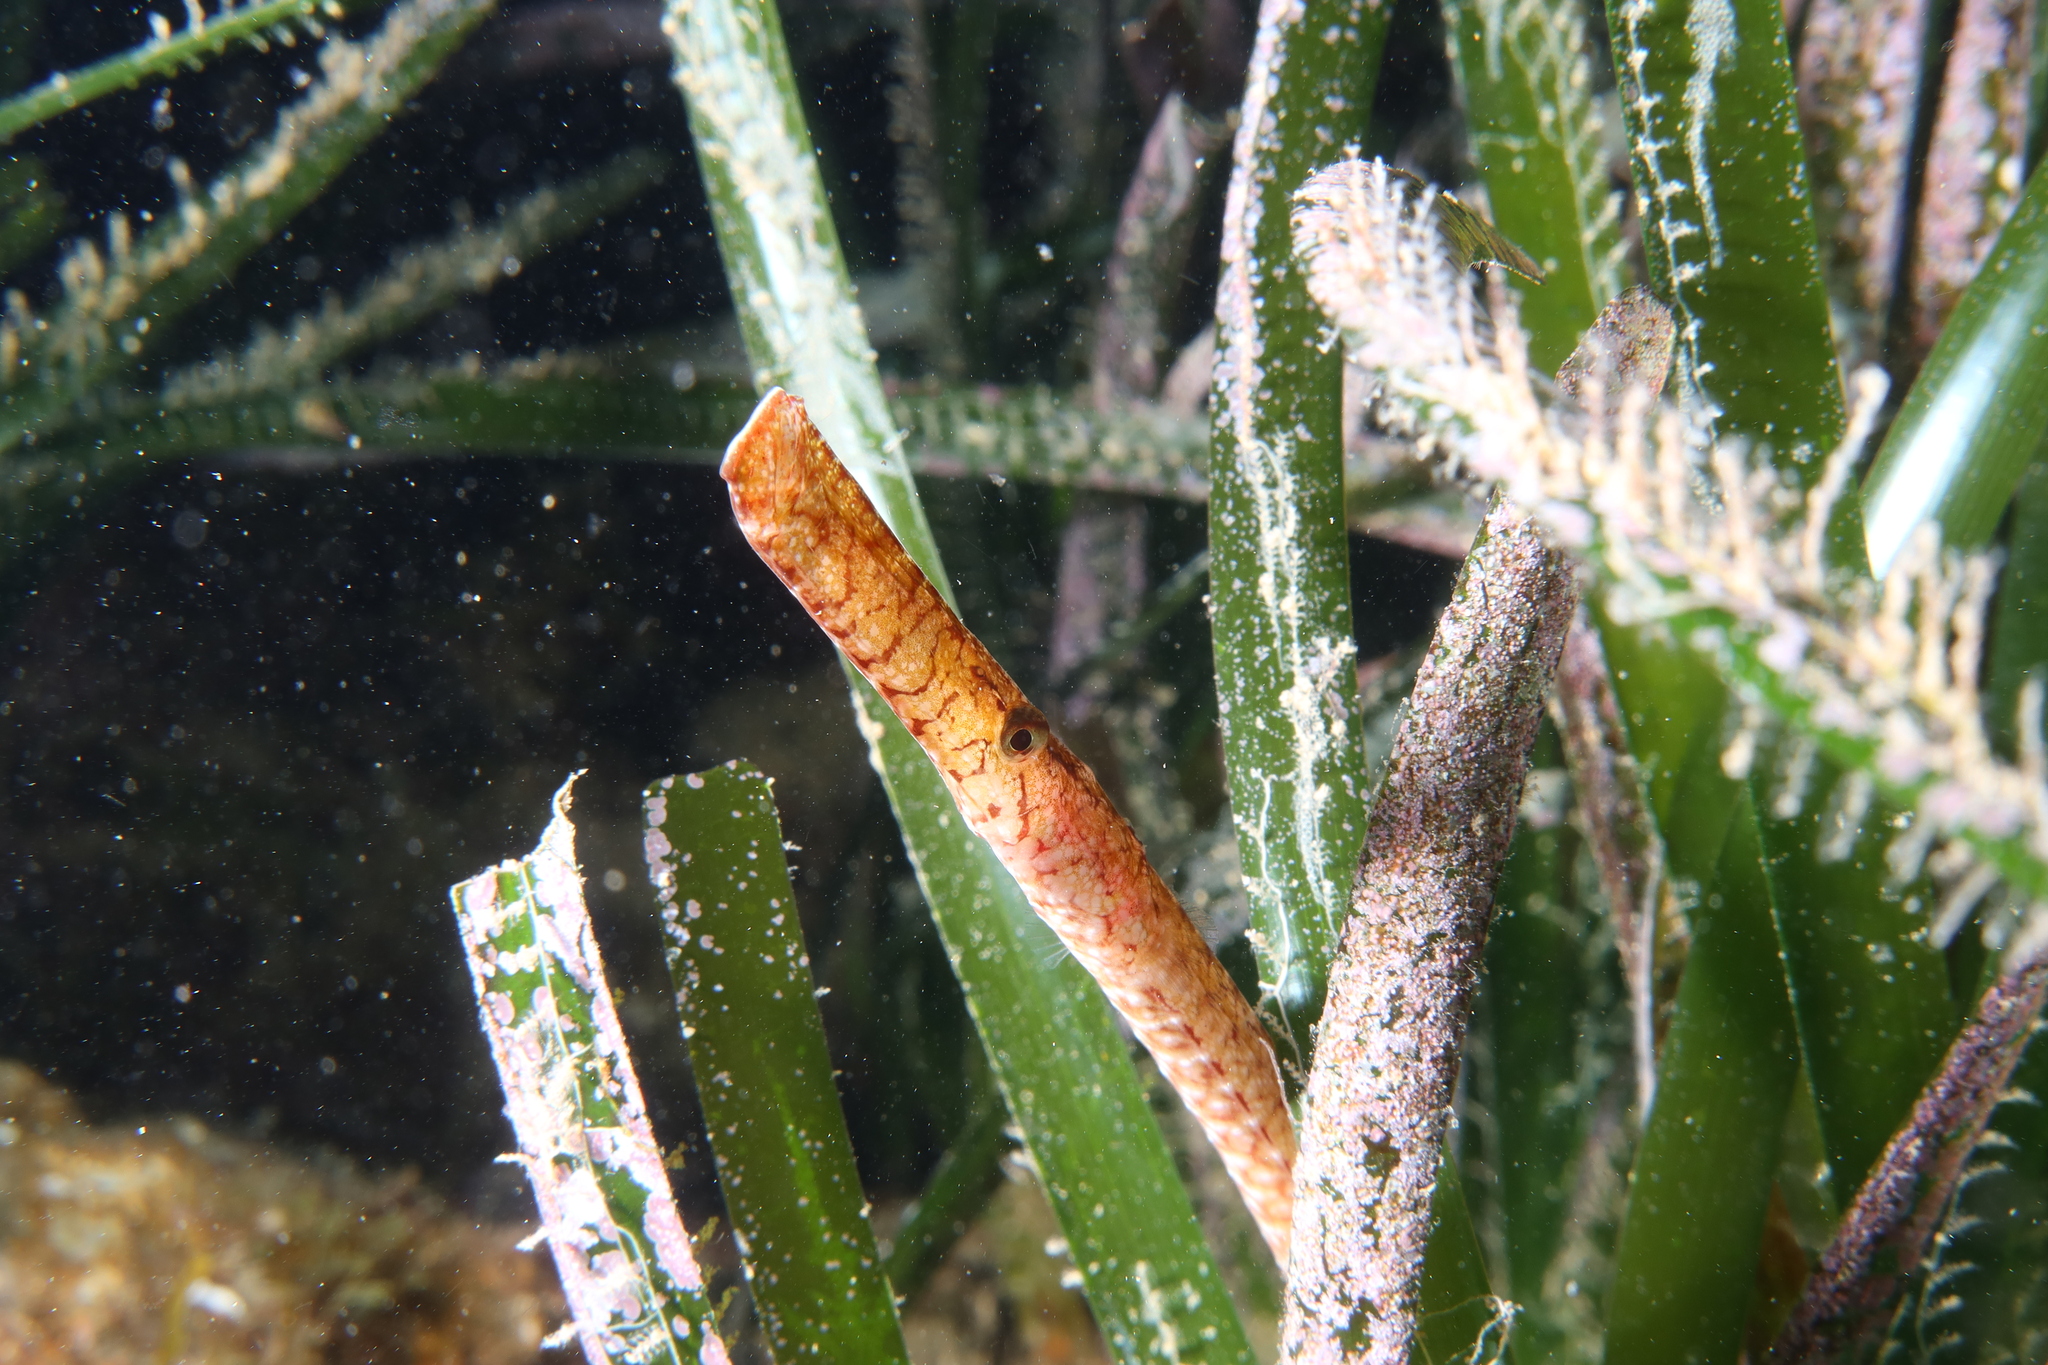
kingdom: Animalia
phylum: Chordata
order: Syngnathiformes
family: Syngnathidae
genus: Syngnathus
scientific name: Syngnathus typhle
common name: Deep-snouted pipefish
